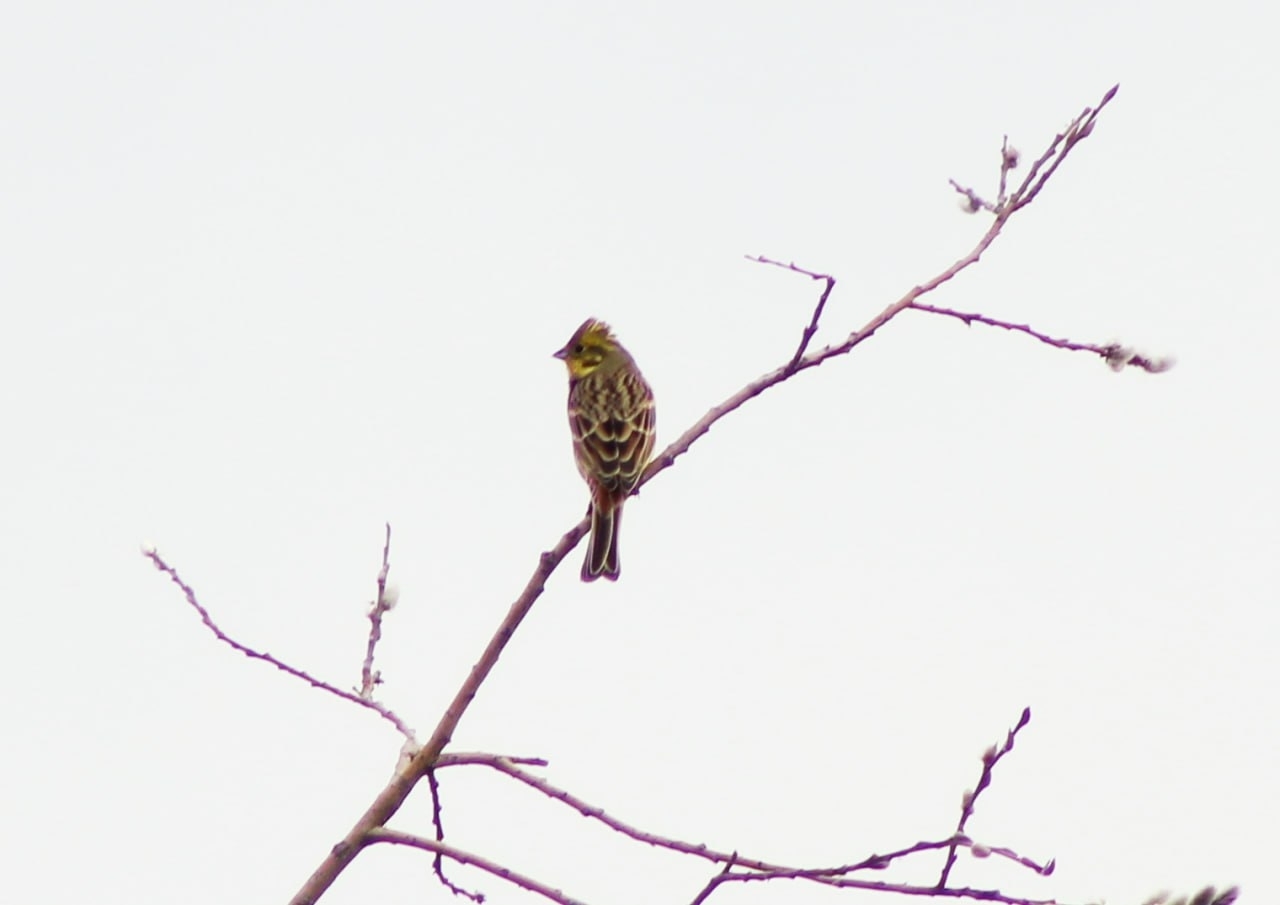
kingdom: Animalia
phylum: Chordata
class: Aves
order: Passeriformes
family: Emberizidae
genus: Emberiza
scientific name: Emberiza citrinella
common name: Yellowhammer
